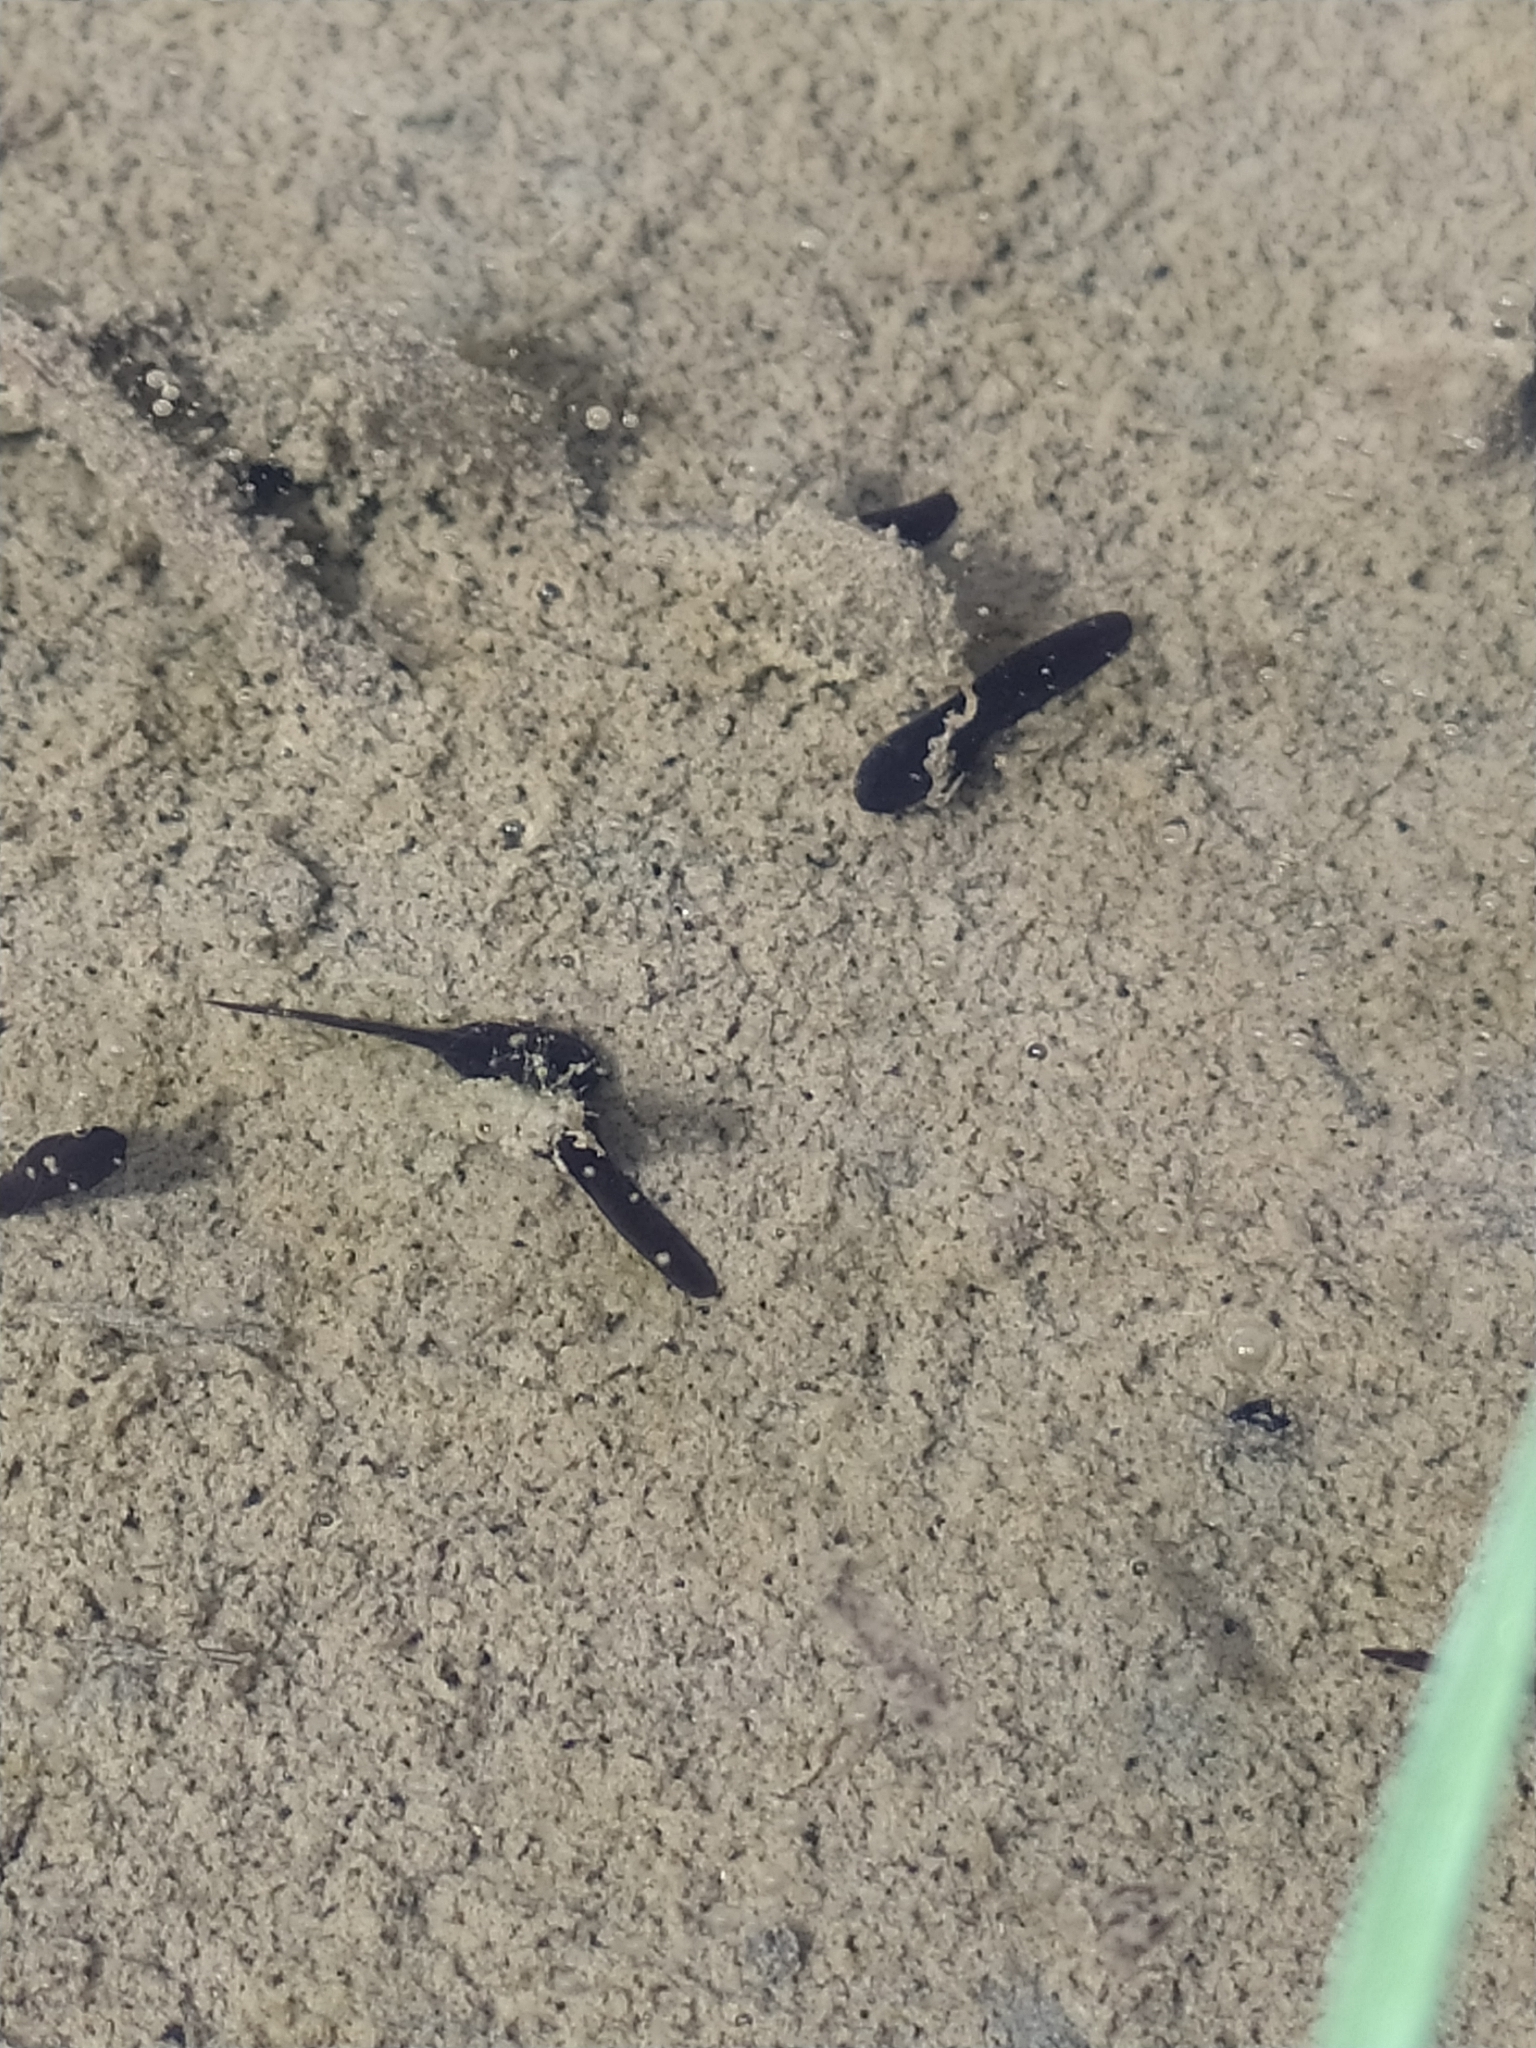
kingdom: Animalia
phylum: Chordata
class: Amphibia
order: Anura
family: Bufonidae
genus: Bufo
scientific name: Bufo bufo
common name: Common toad
